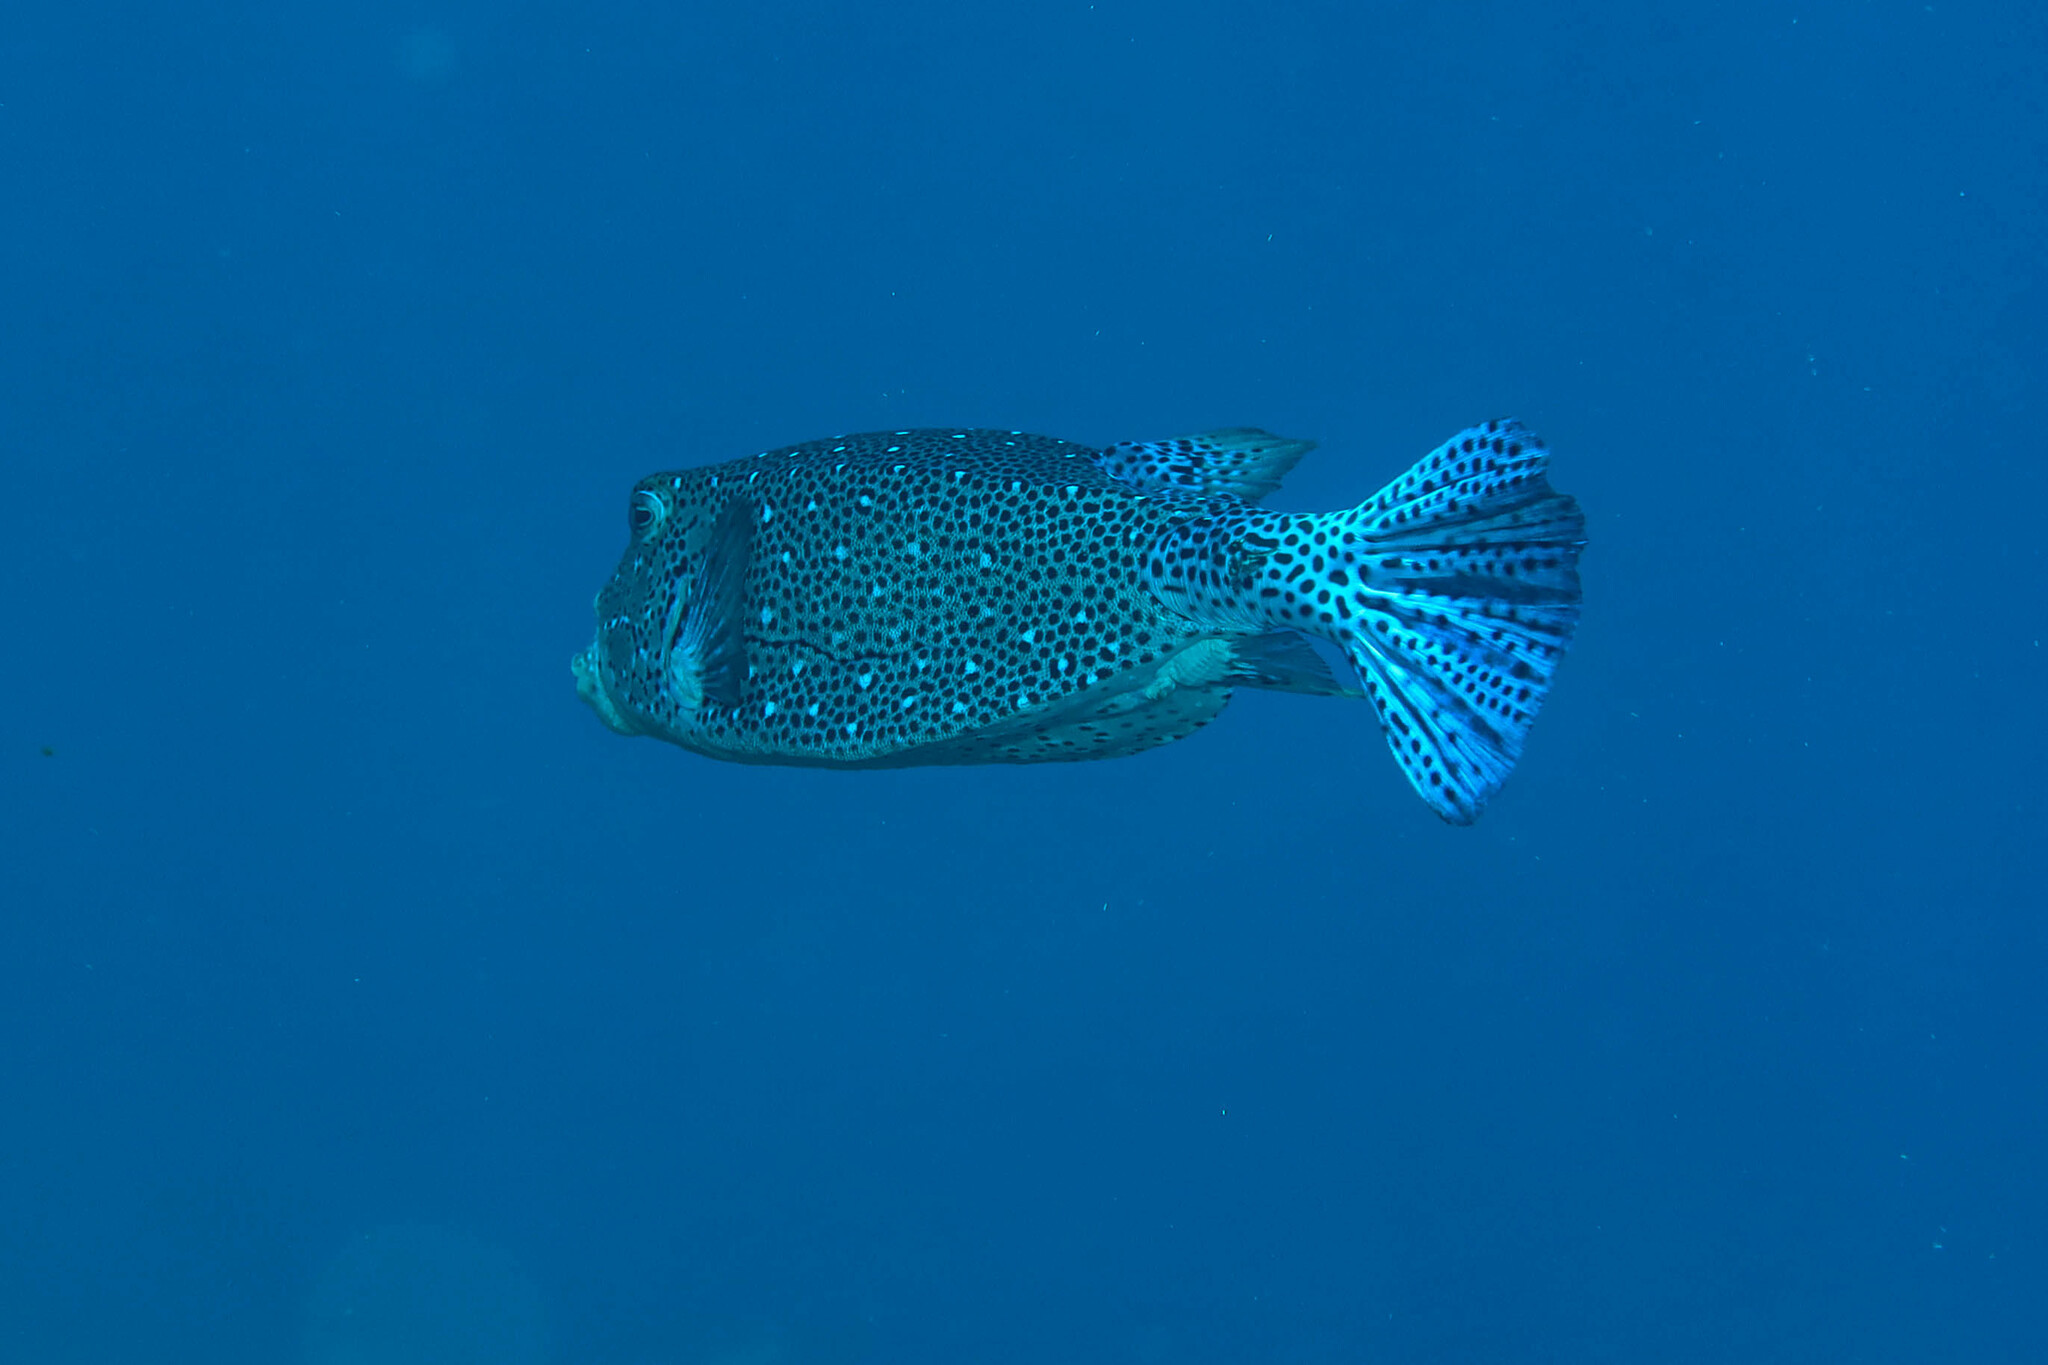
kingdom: Animalia
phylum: Chordata
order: Tetraodontiformes
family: Ostraciidae
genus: Ostracion
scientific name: Ostracion cubicus
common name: Cube trunkfish
